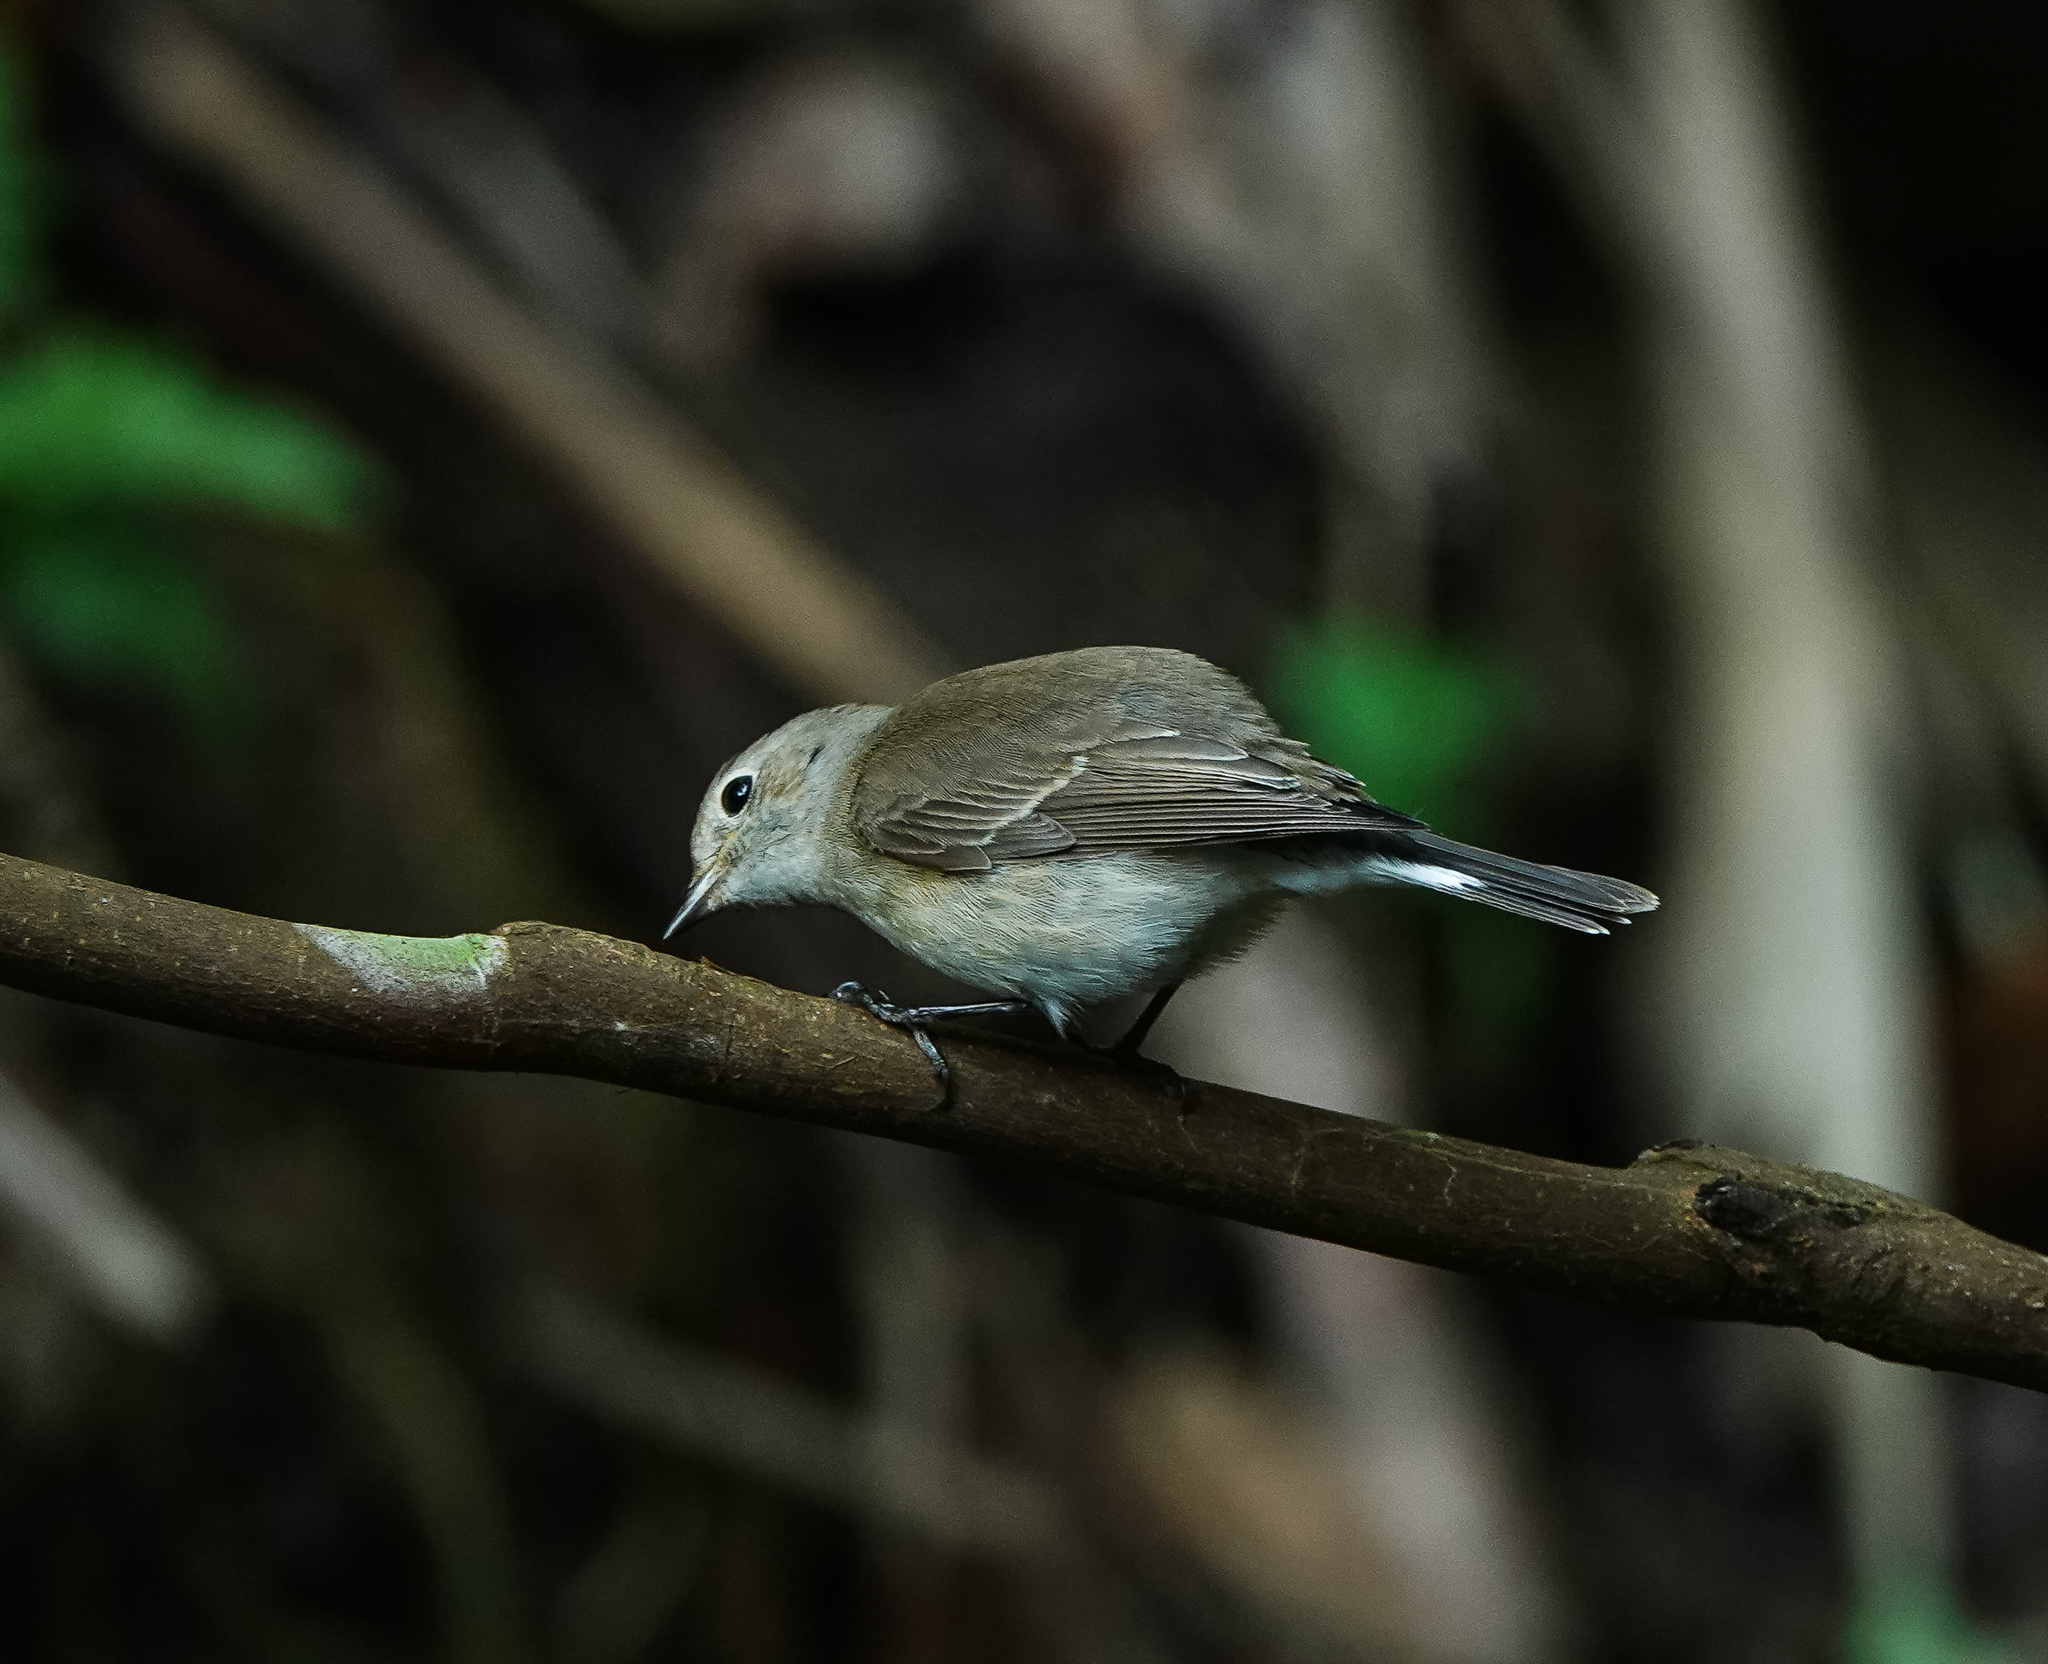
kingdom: Animalia
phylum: Chordata
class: Aves
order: Passeriformes
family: Muscicapidae
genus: Ficedula
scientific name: Ficedula westermanni
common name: Little pied flycatcher
